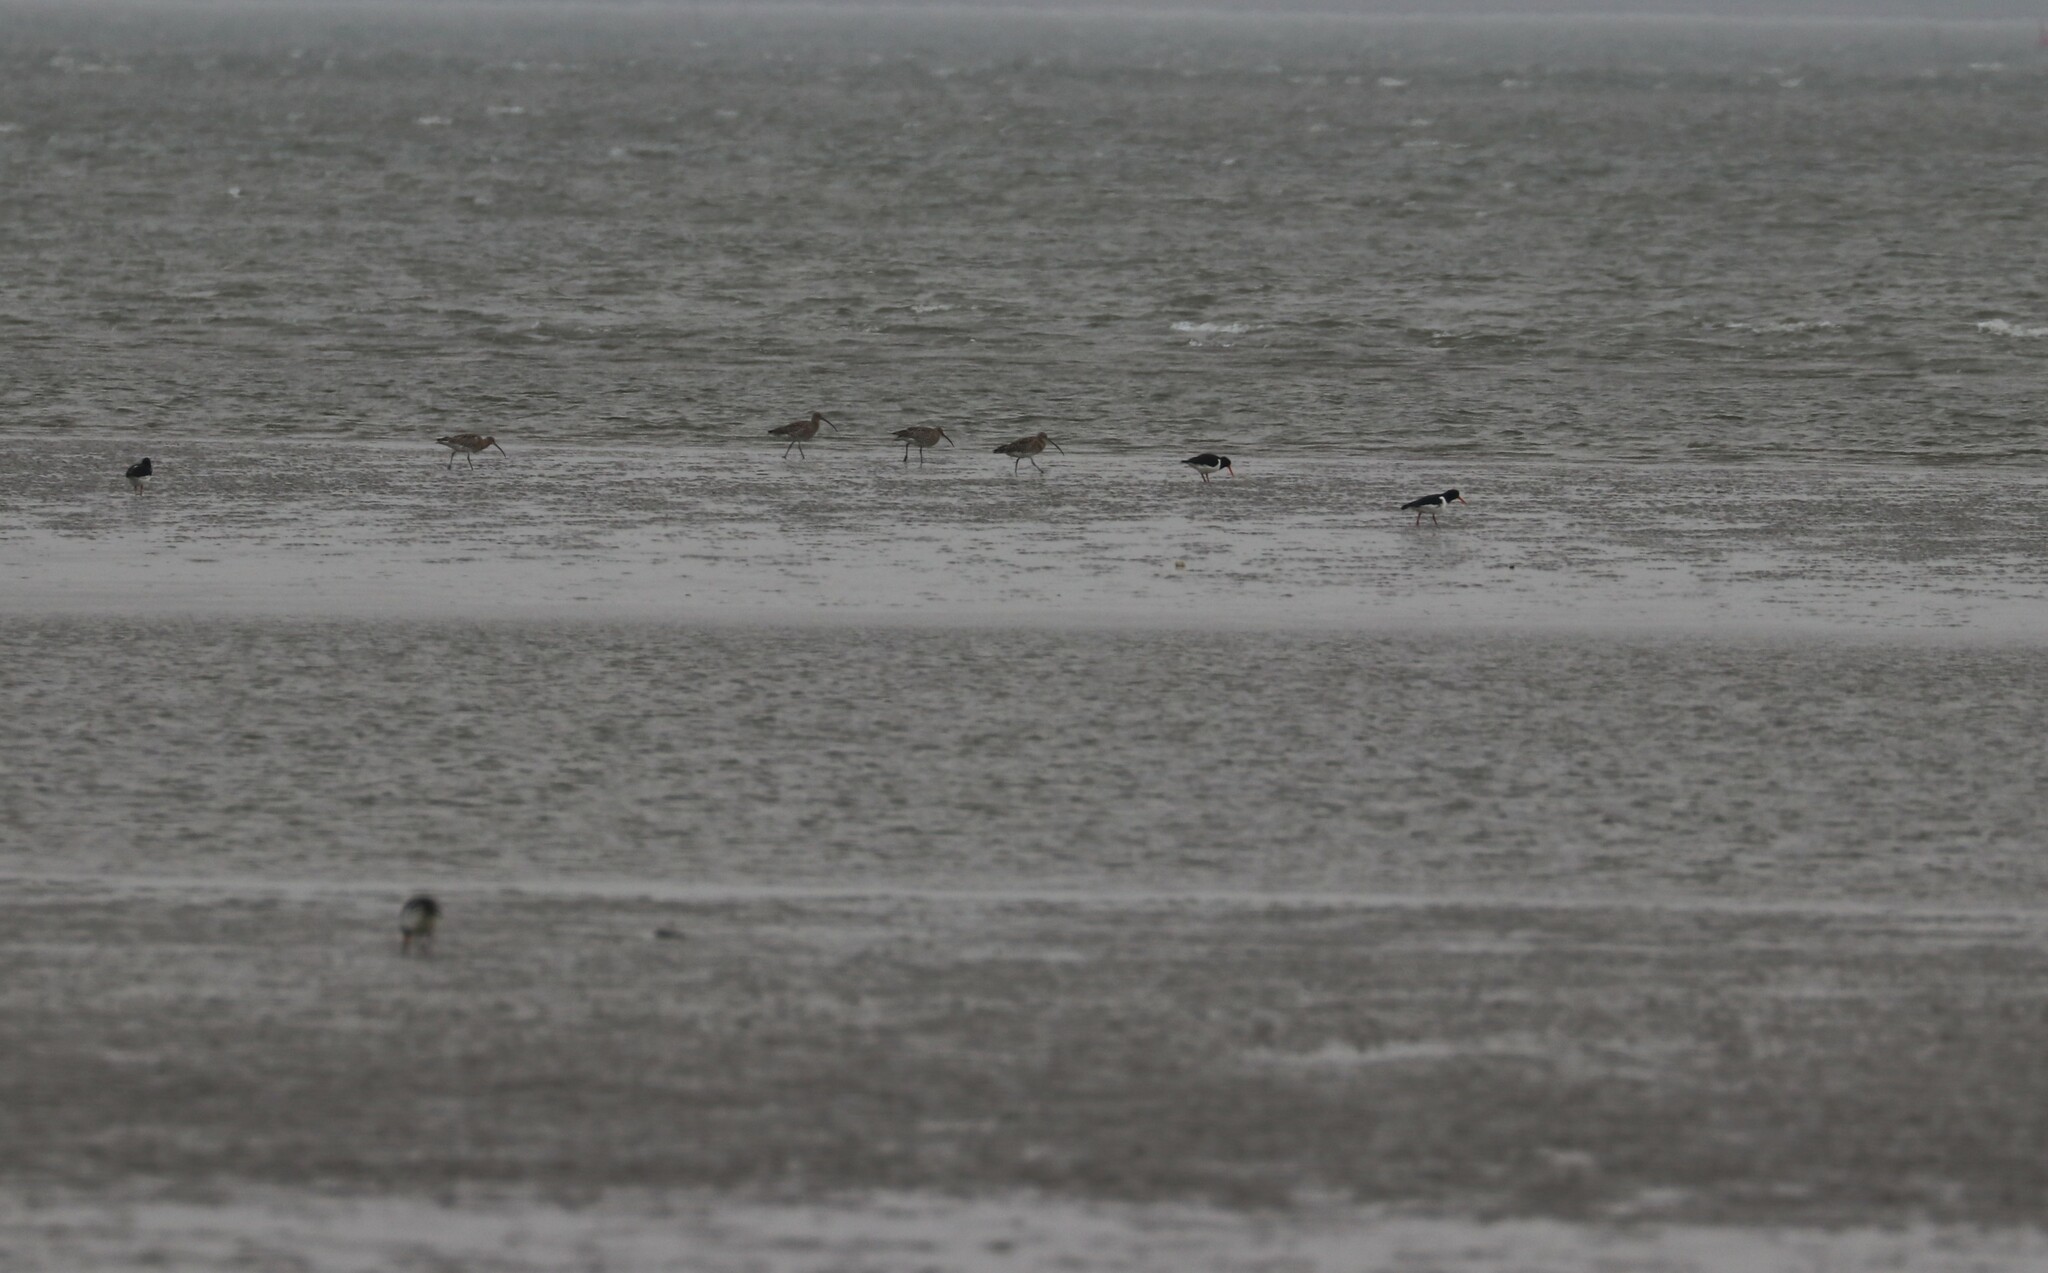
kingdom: Animalia
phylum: Chordata
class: Aves
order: Charadriiformes
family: Scolopacidae
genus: Numenius
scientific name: Numenius arquata
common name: Eurasian curlew
